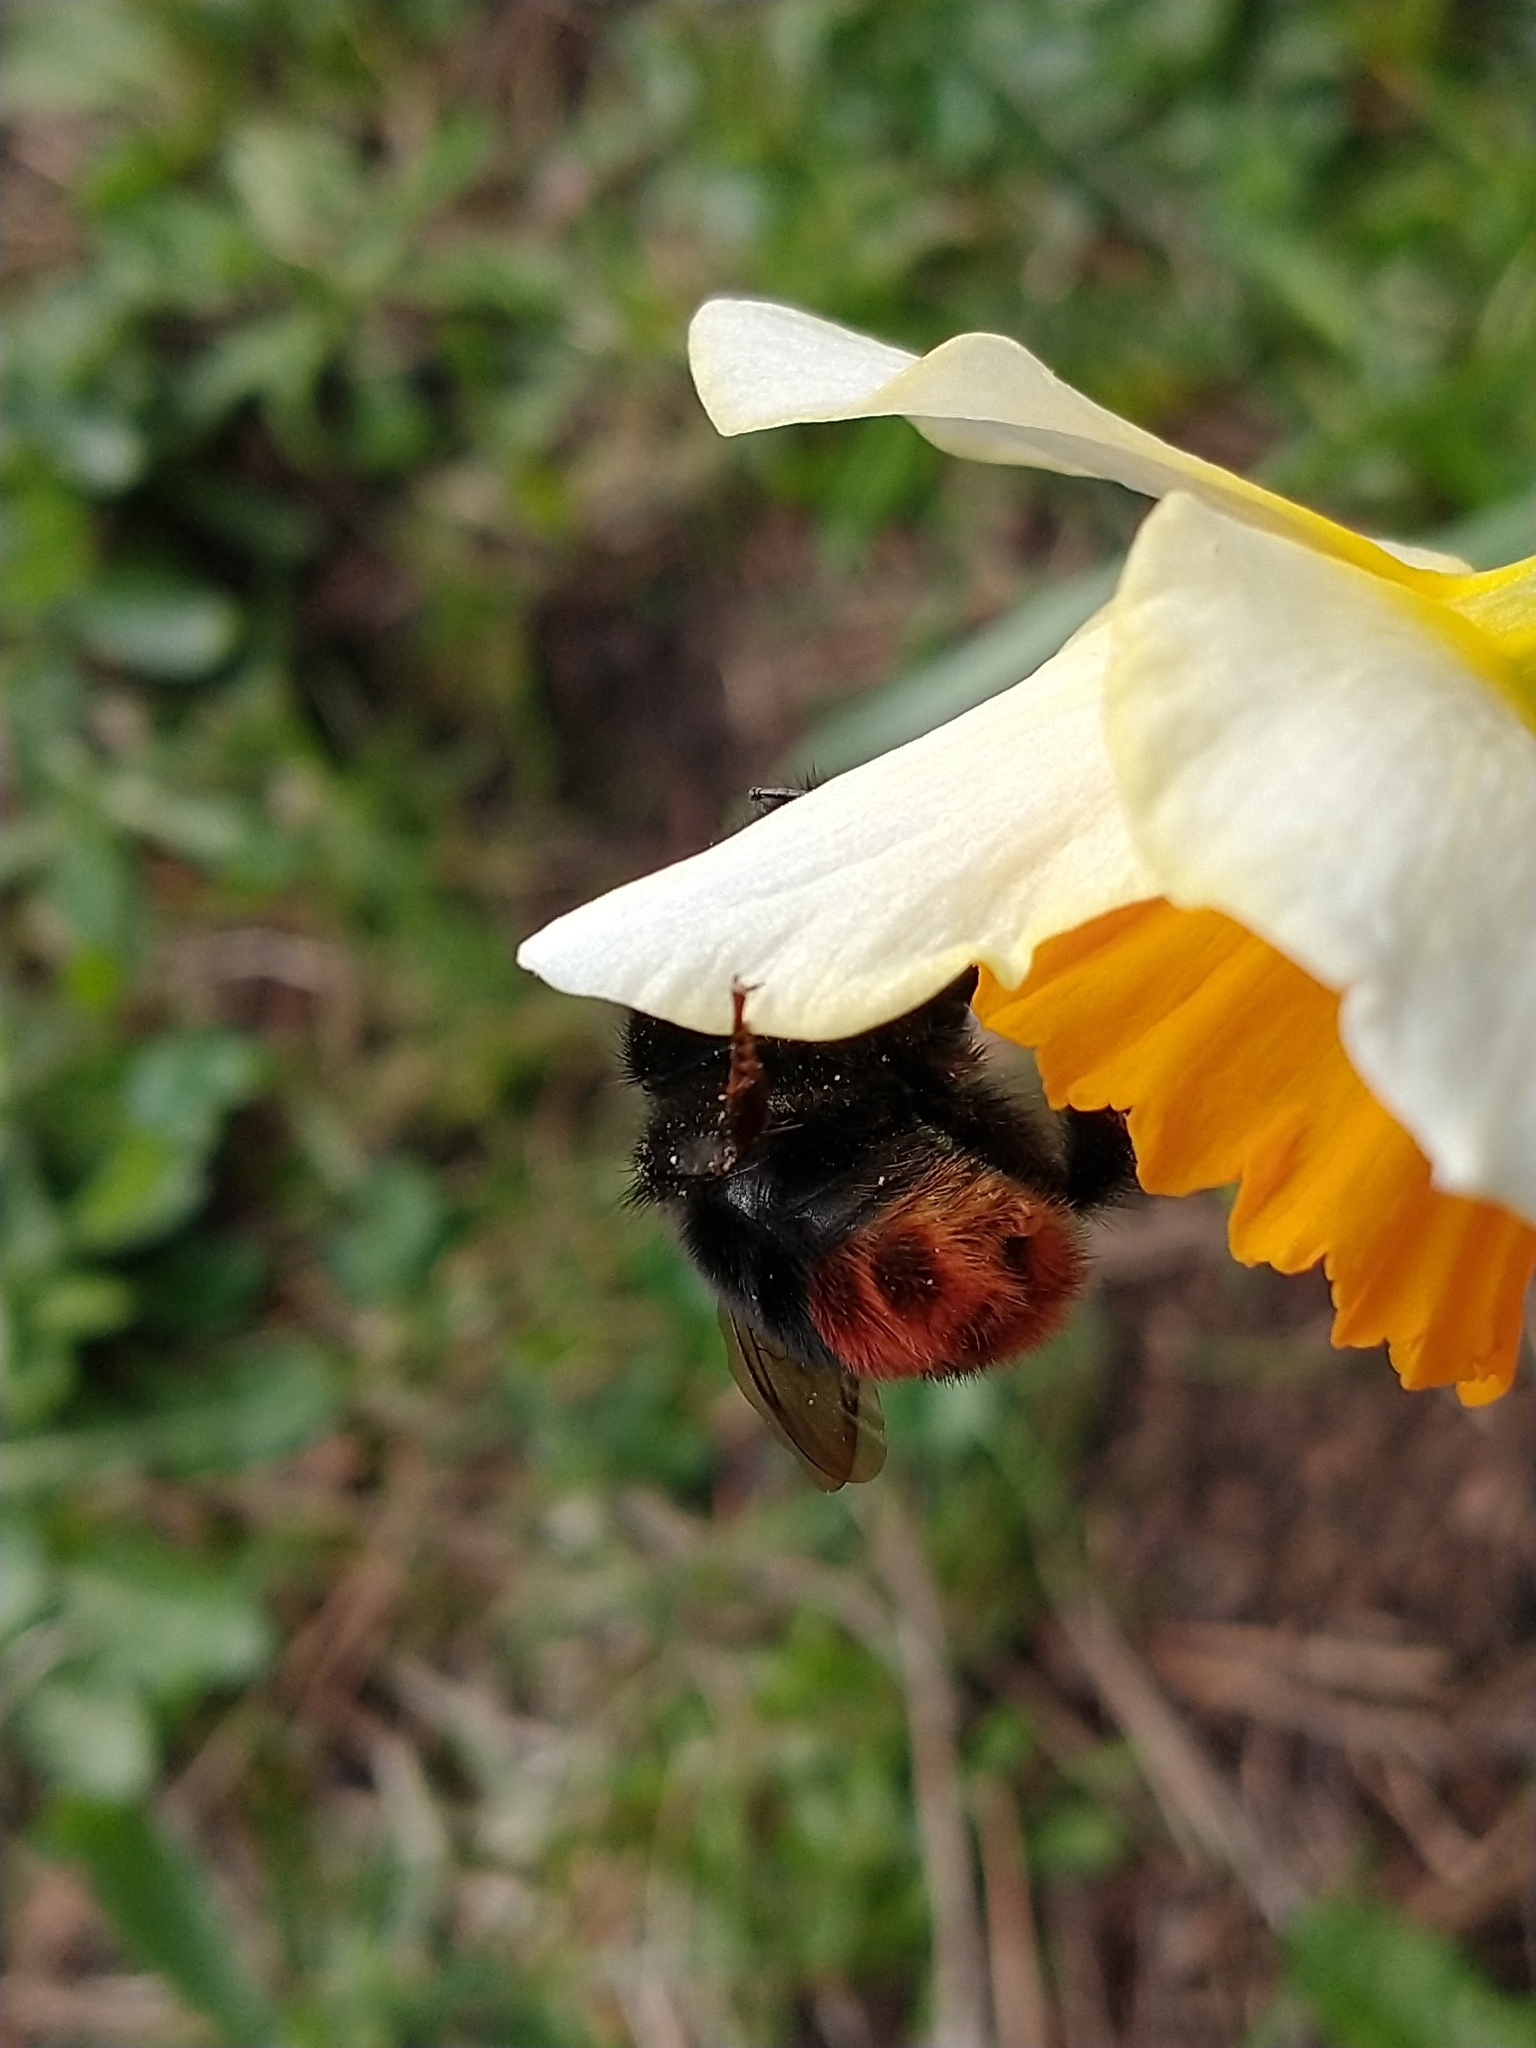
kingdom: Animalia
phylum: Arthropoda
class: Insecta
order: Hymenoptera
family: Apidae
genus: Bombus
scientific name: Bombus lapidarius
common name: Large red-tailed humble-bee
